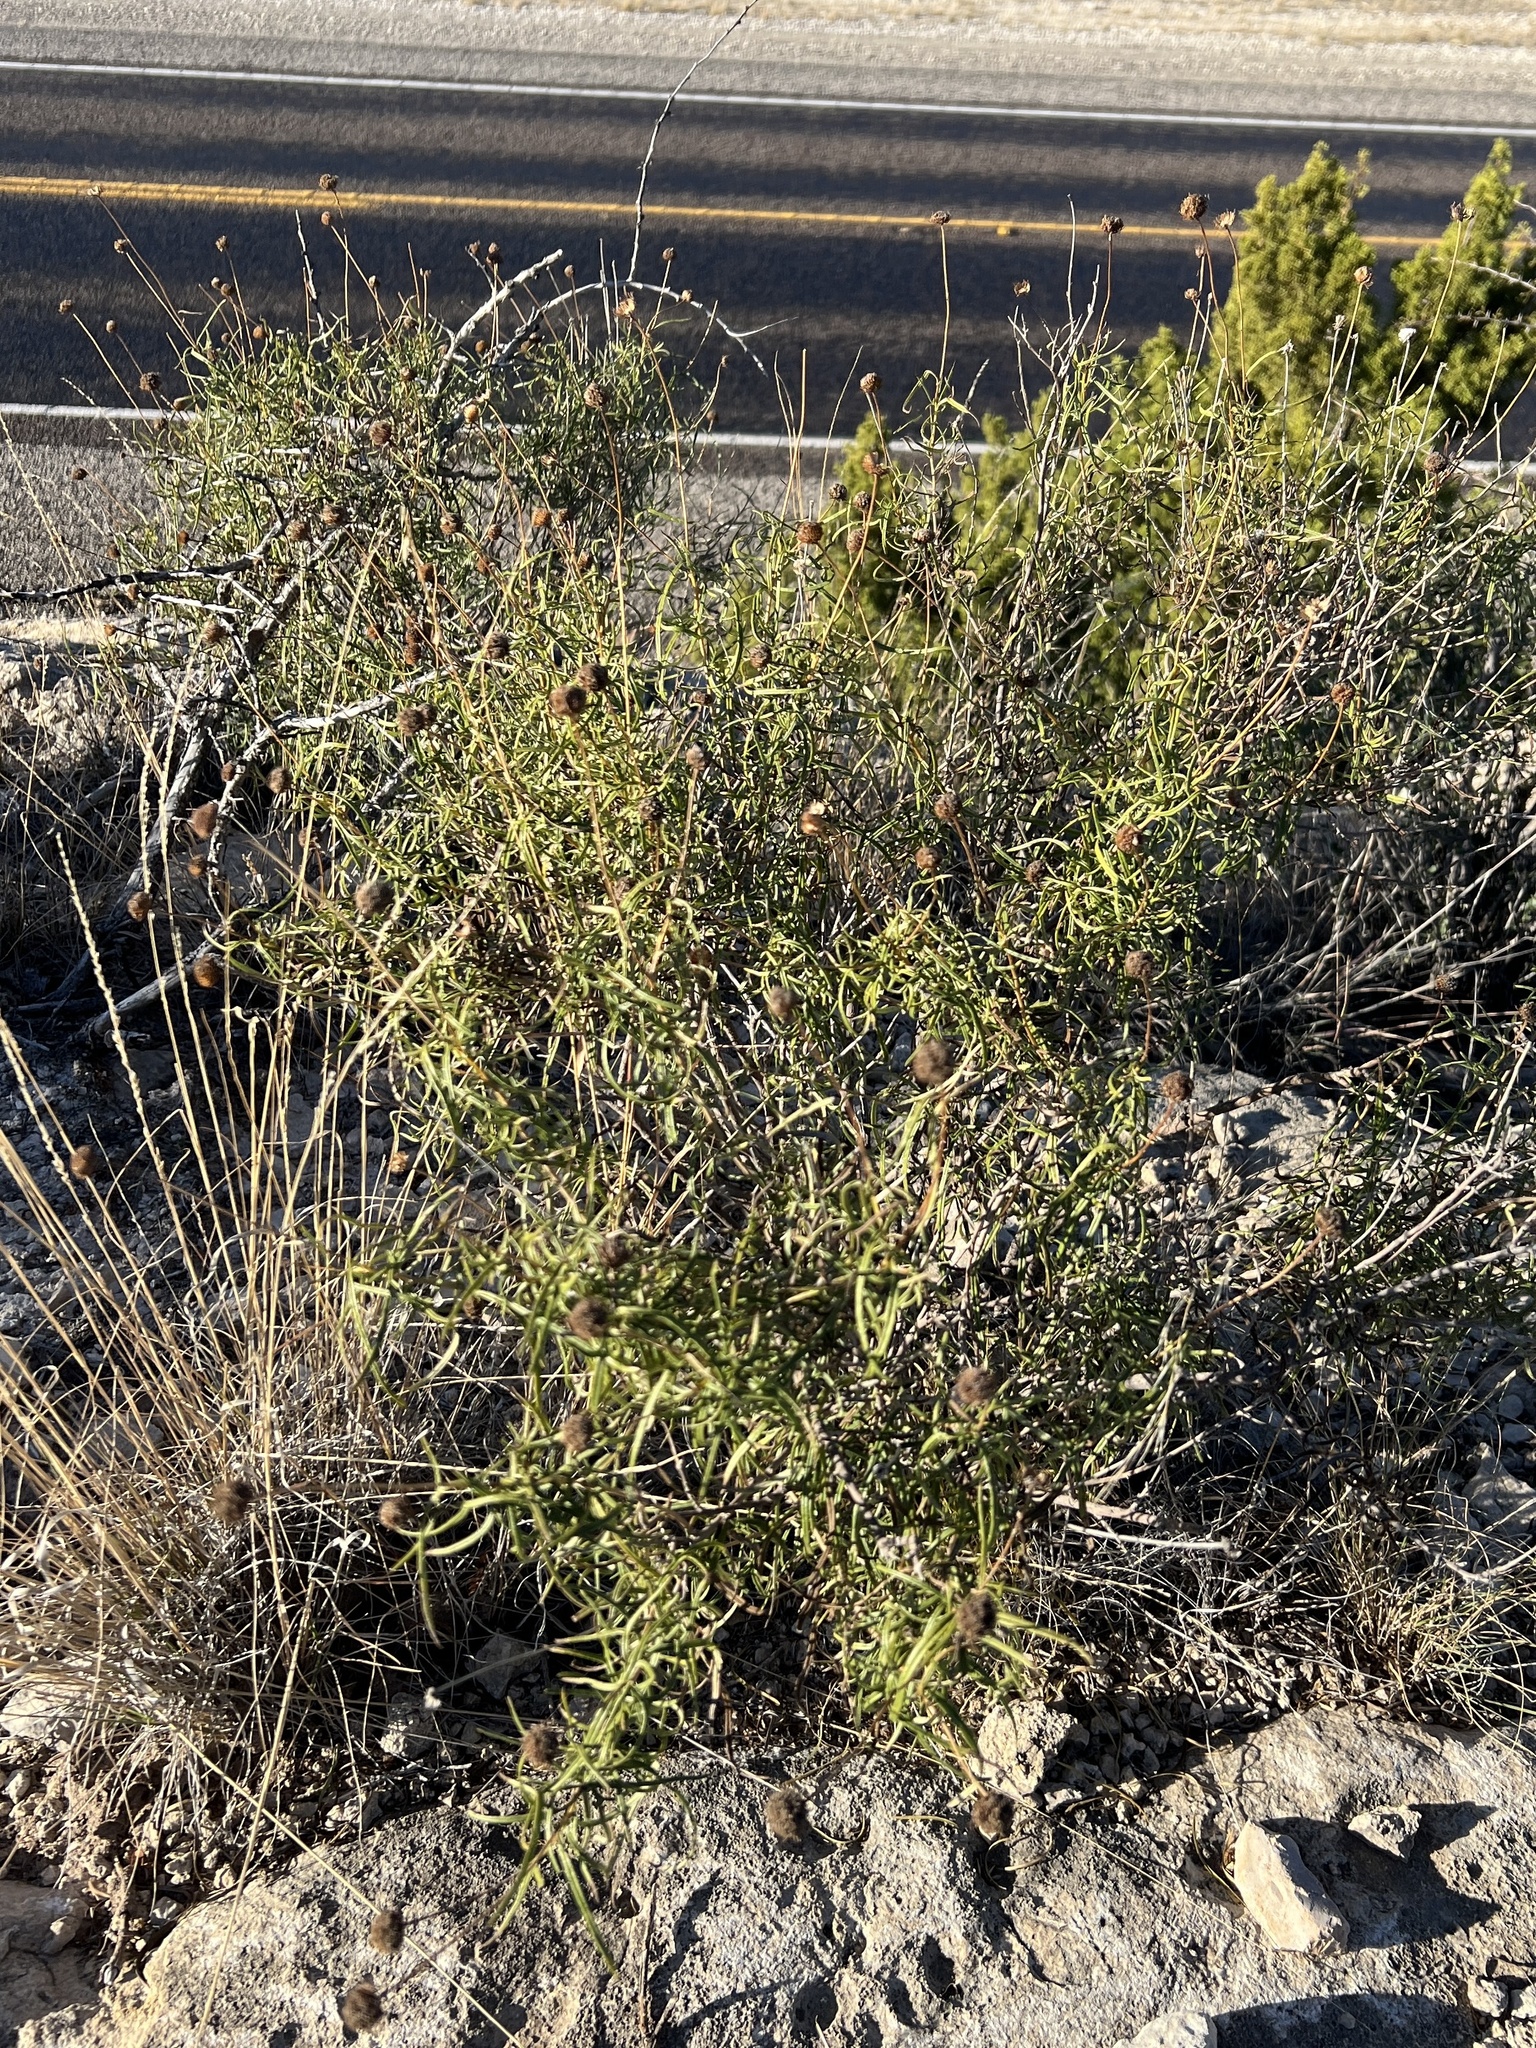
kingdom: Plantae
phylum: Tracheophyta
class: Magnoliopsida
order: Asterales
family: Asteraceae
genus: Sidneya
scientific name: Sidneya tenuifolia
